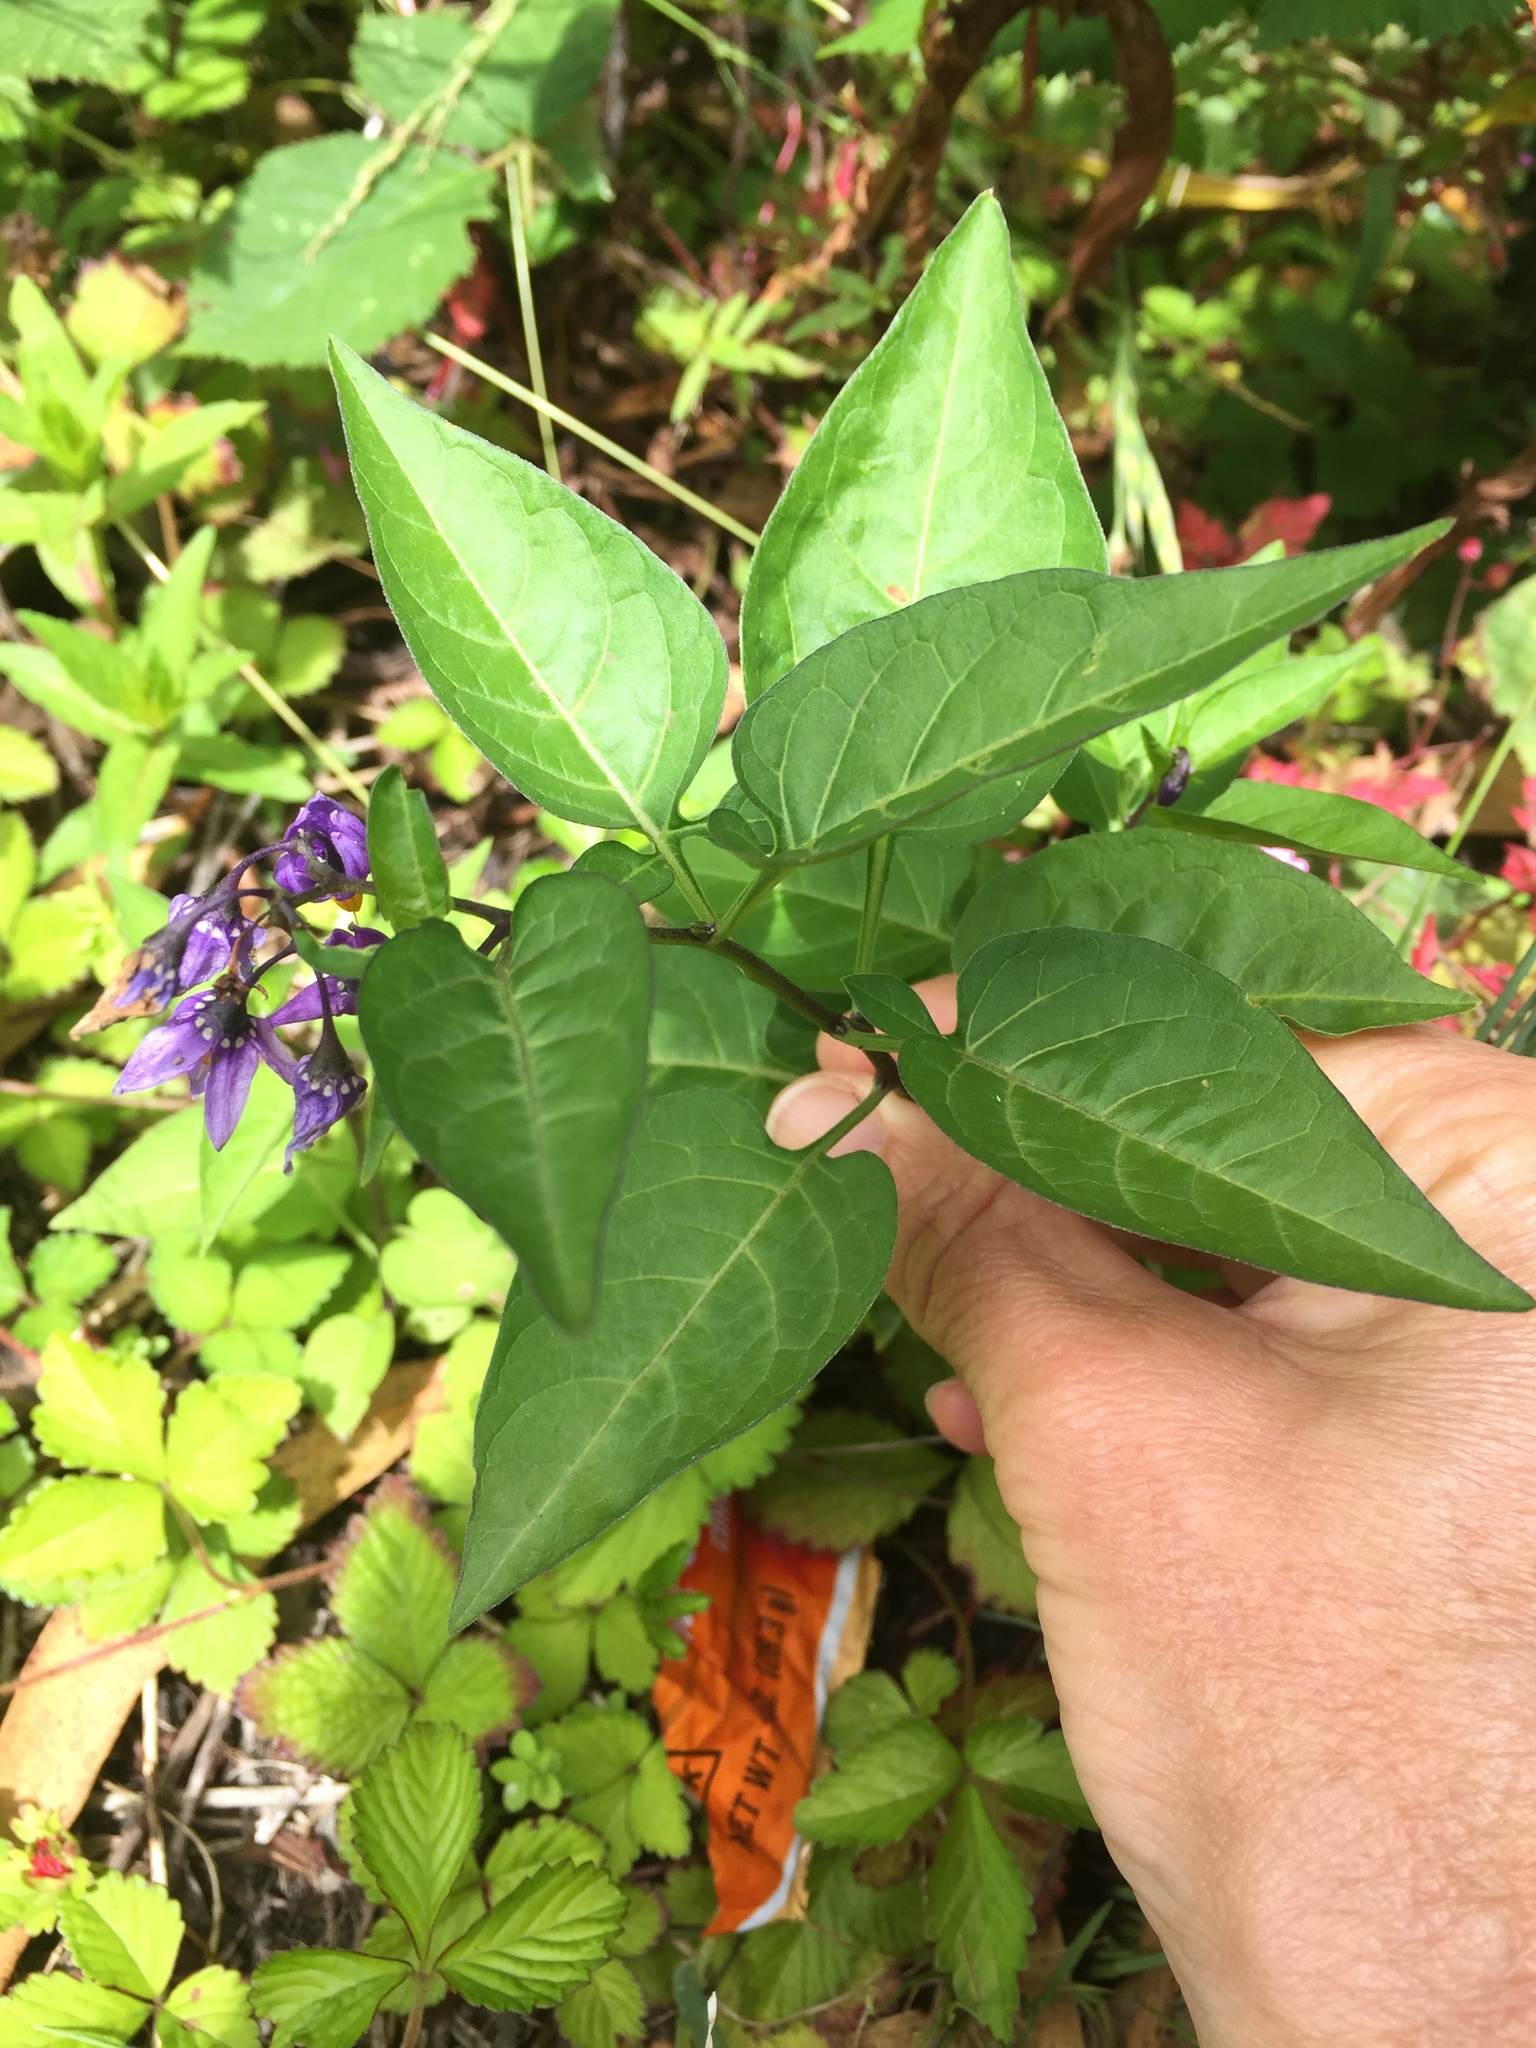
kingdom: Plantae
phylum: Tracheophyta
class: Magnoliopsida
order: Solanales
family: Solanaceae
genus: Solanum
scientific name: Solanum dulcamara
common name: Climbing nightshade
